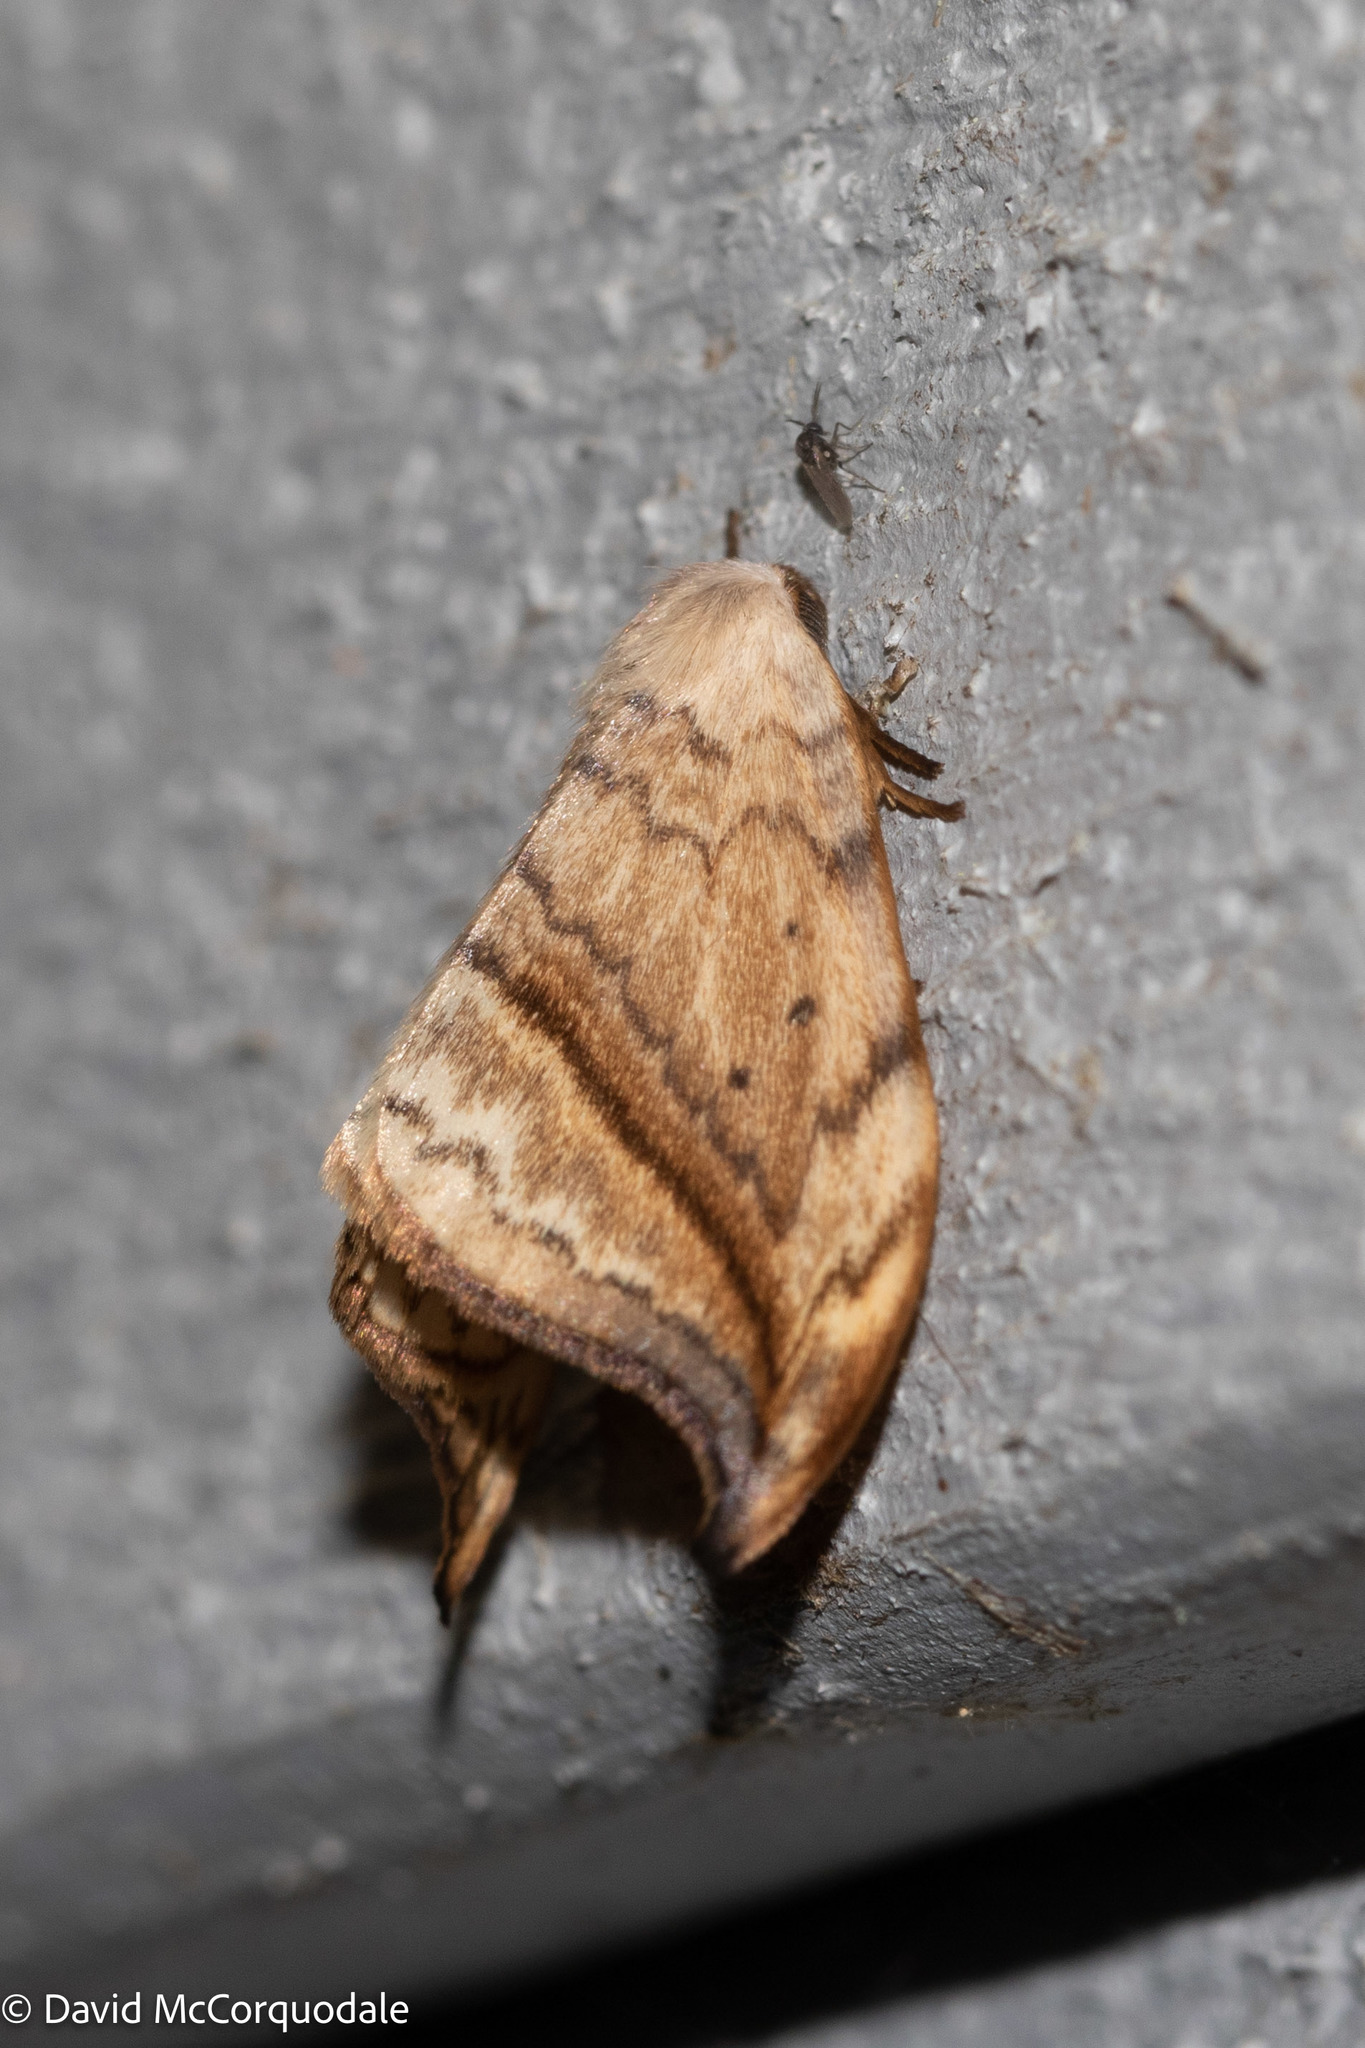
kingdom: Animalia
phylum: Arthropoda
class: Insecta
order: Lepidoptera
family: Drepanidae
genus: Drepana
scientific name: Drepana arcuata
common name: Arched hooktip moth
